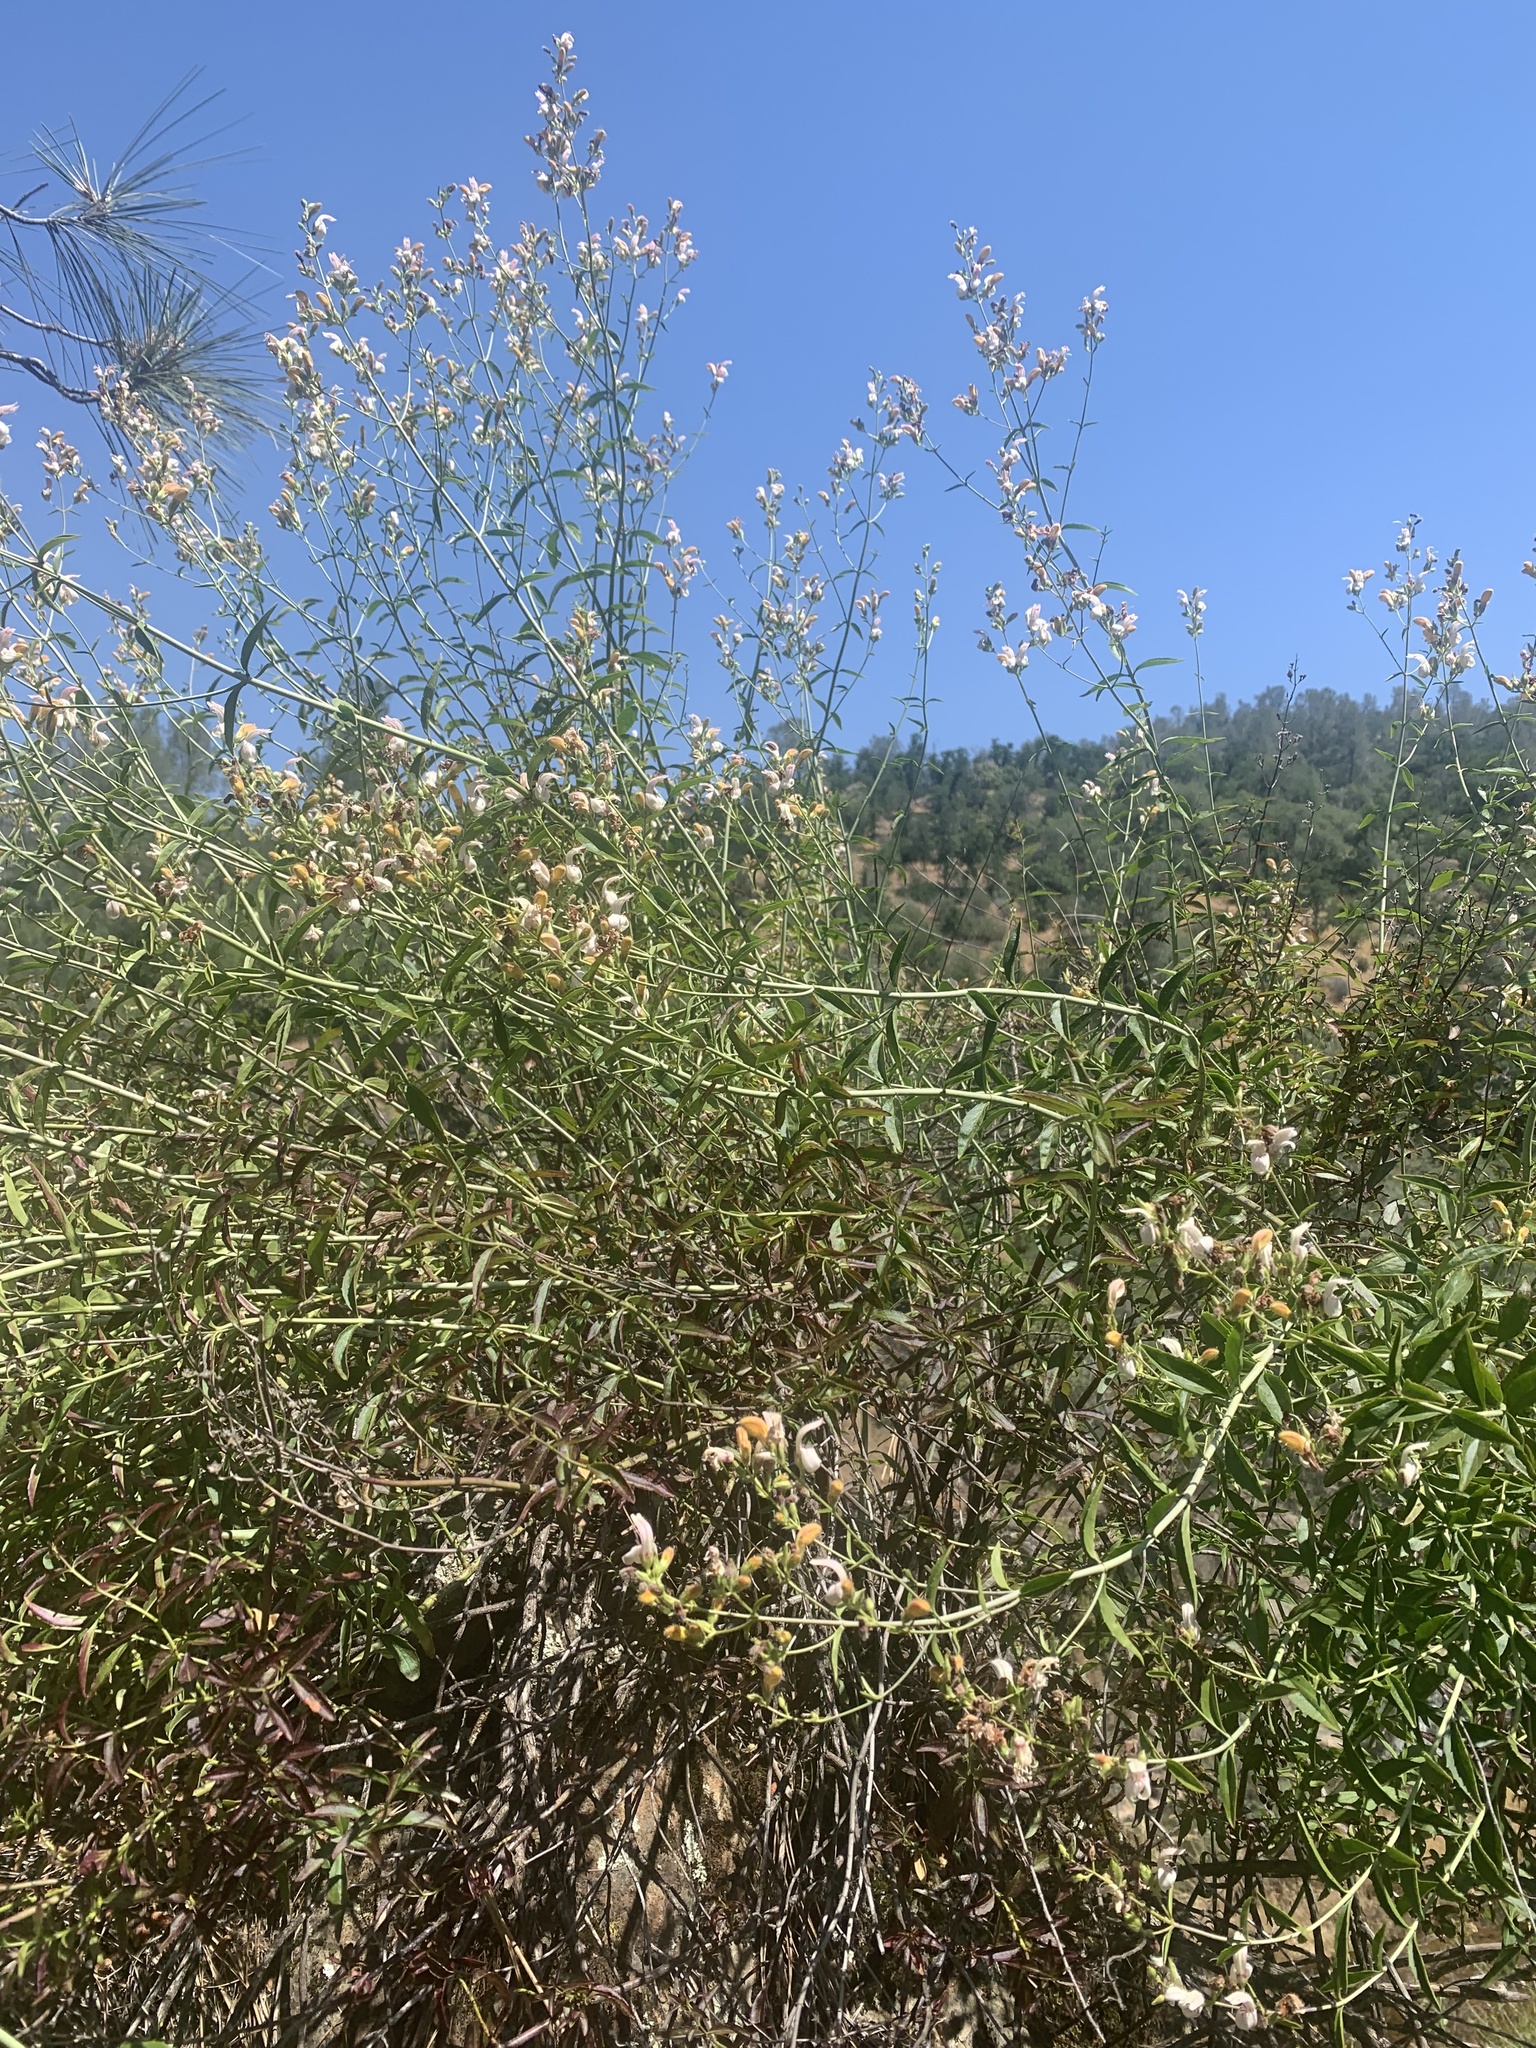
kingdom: Plantae
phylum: Tracheophyta
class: Magnoliopsida
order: Lamiales
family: Plantaginaceae
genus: Keckiella
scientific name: Keckiella breviflora
